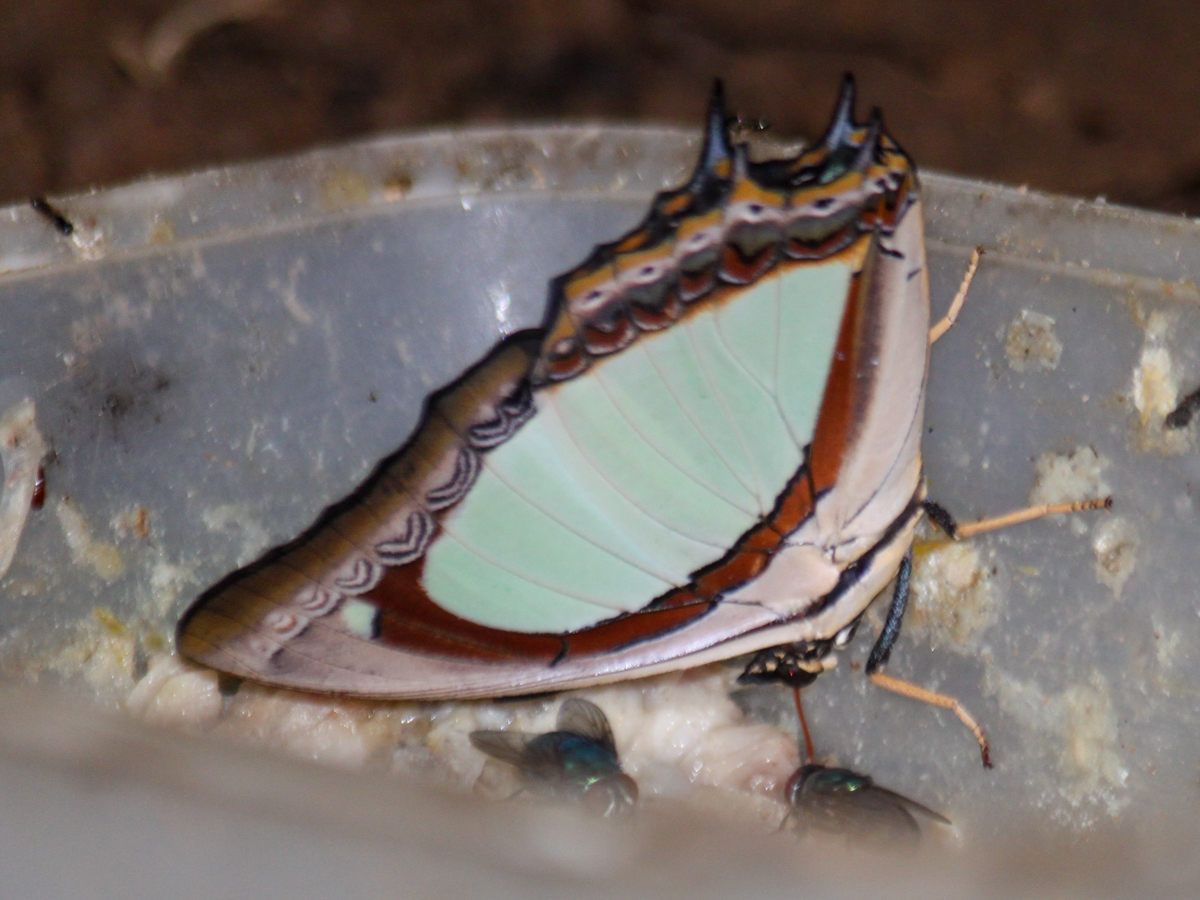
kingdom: Animalia
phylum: Arthropoda
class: Insecta
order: Lepidoptera
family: Nymphalidae
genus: Polyura
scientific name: Polyura jalysus
